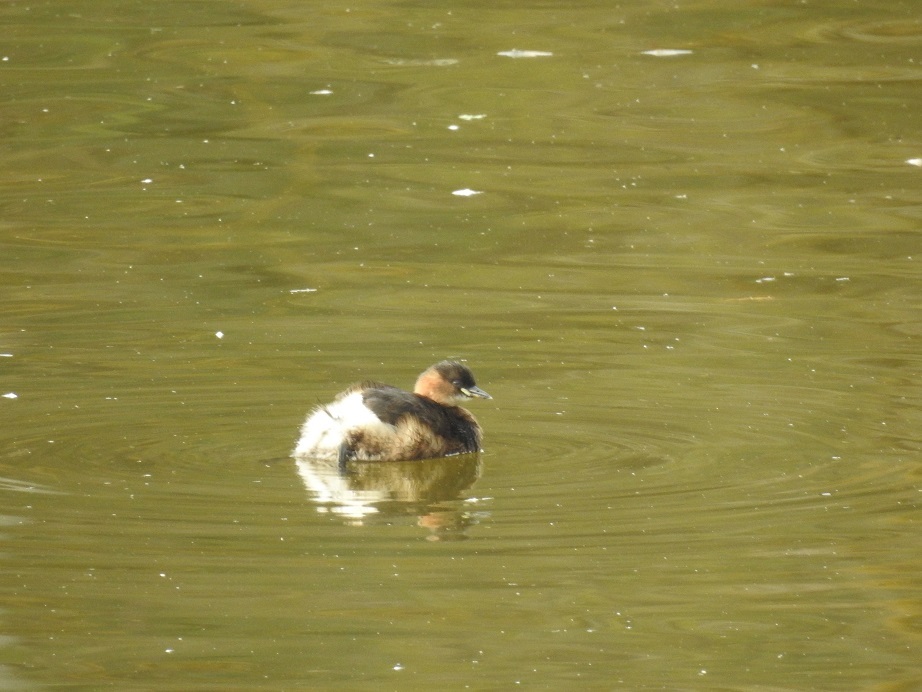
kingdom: Animalia
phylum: Chordata
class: Aves
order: Podicipediformes
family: Podicipedidae
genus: Tachybaptus
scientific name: Tachybaptus ruficollis
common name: Little grebe
